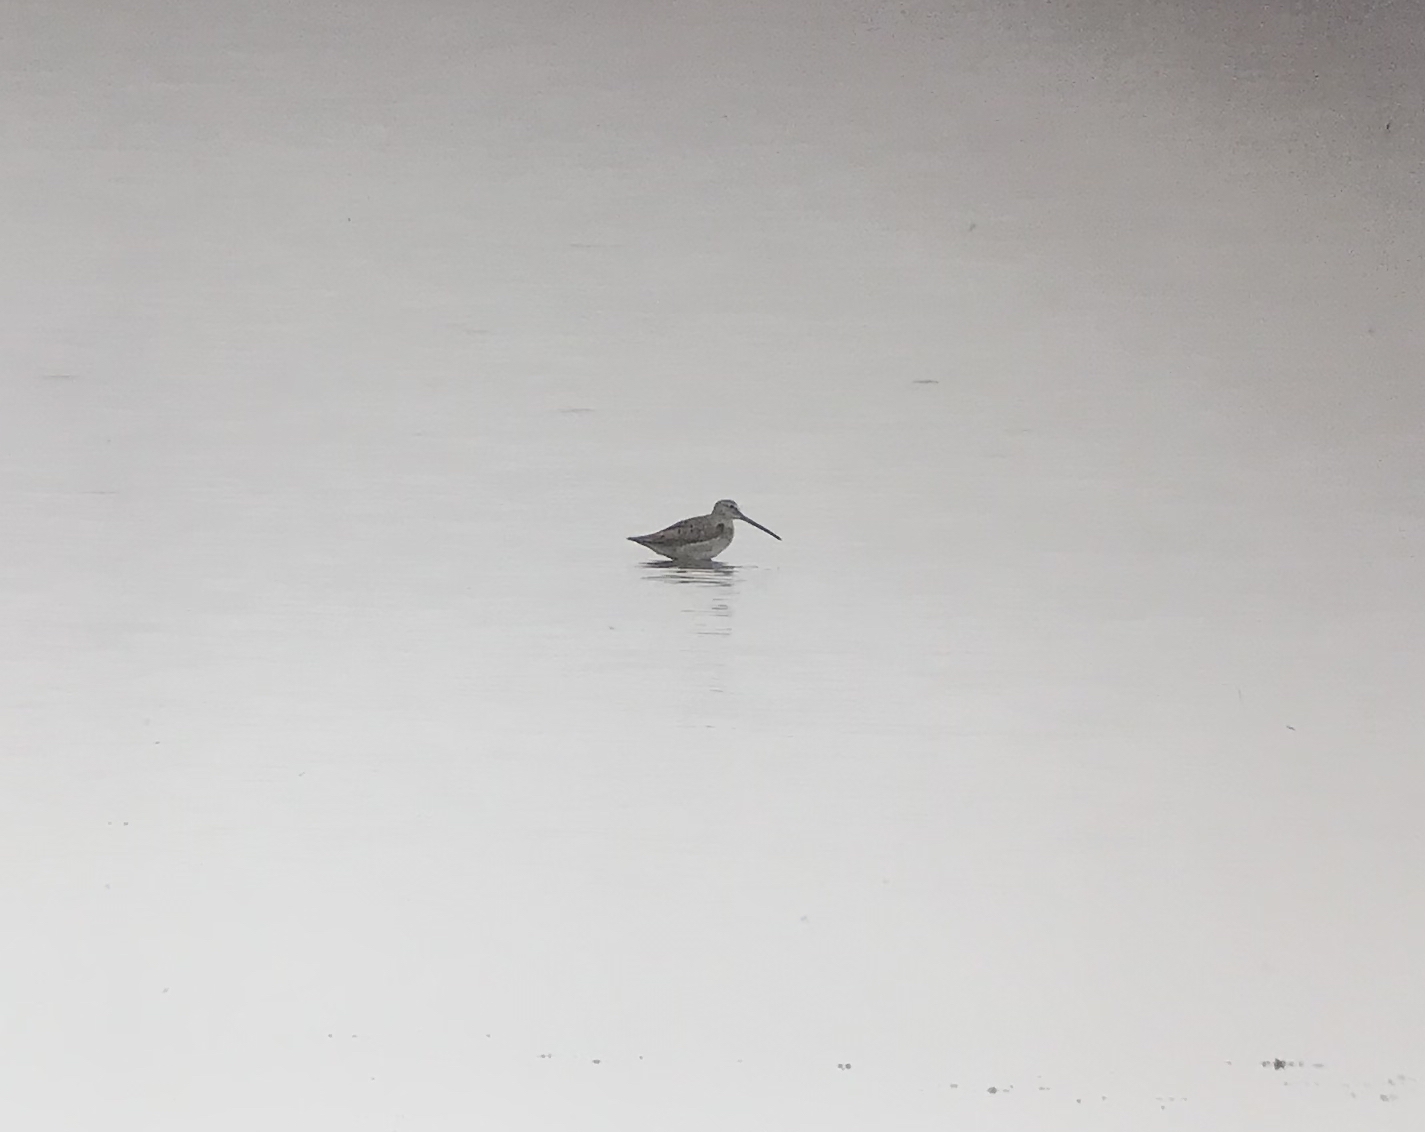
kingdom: Animalia
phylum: Chordata
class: Aves
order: Charadriiformes
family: Scolopacidae
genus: Limnodromus
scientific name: Limnodromus
